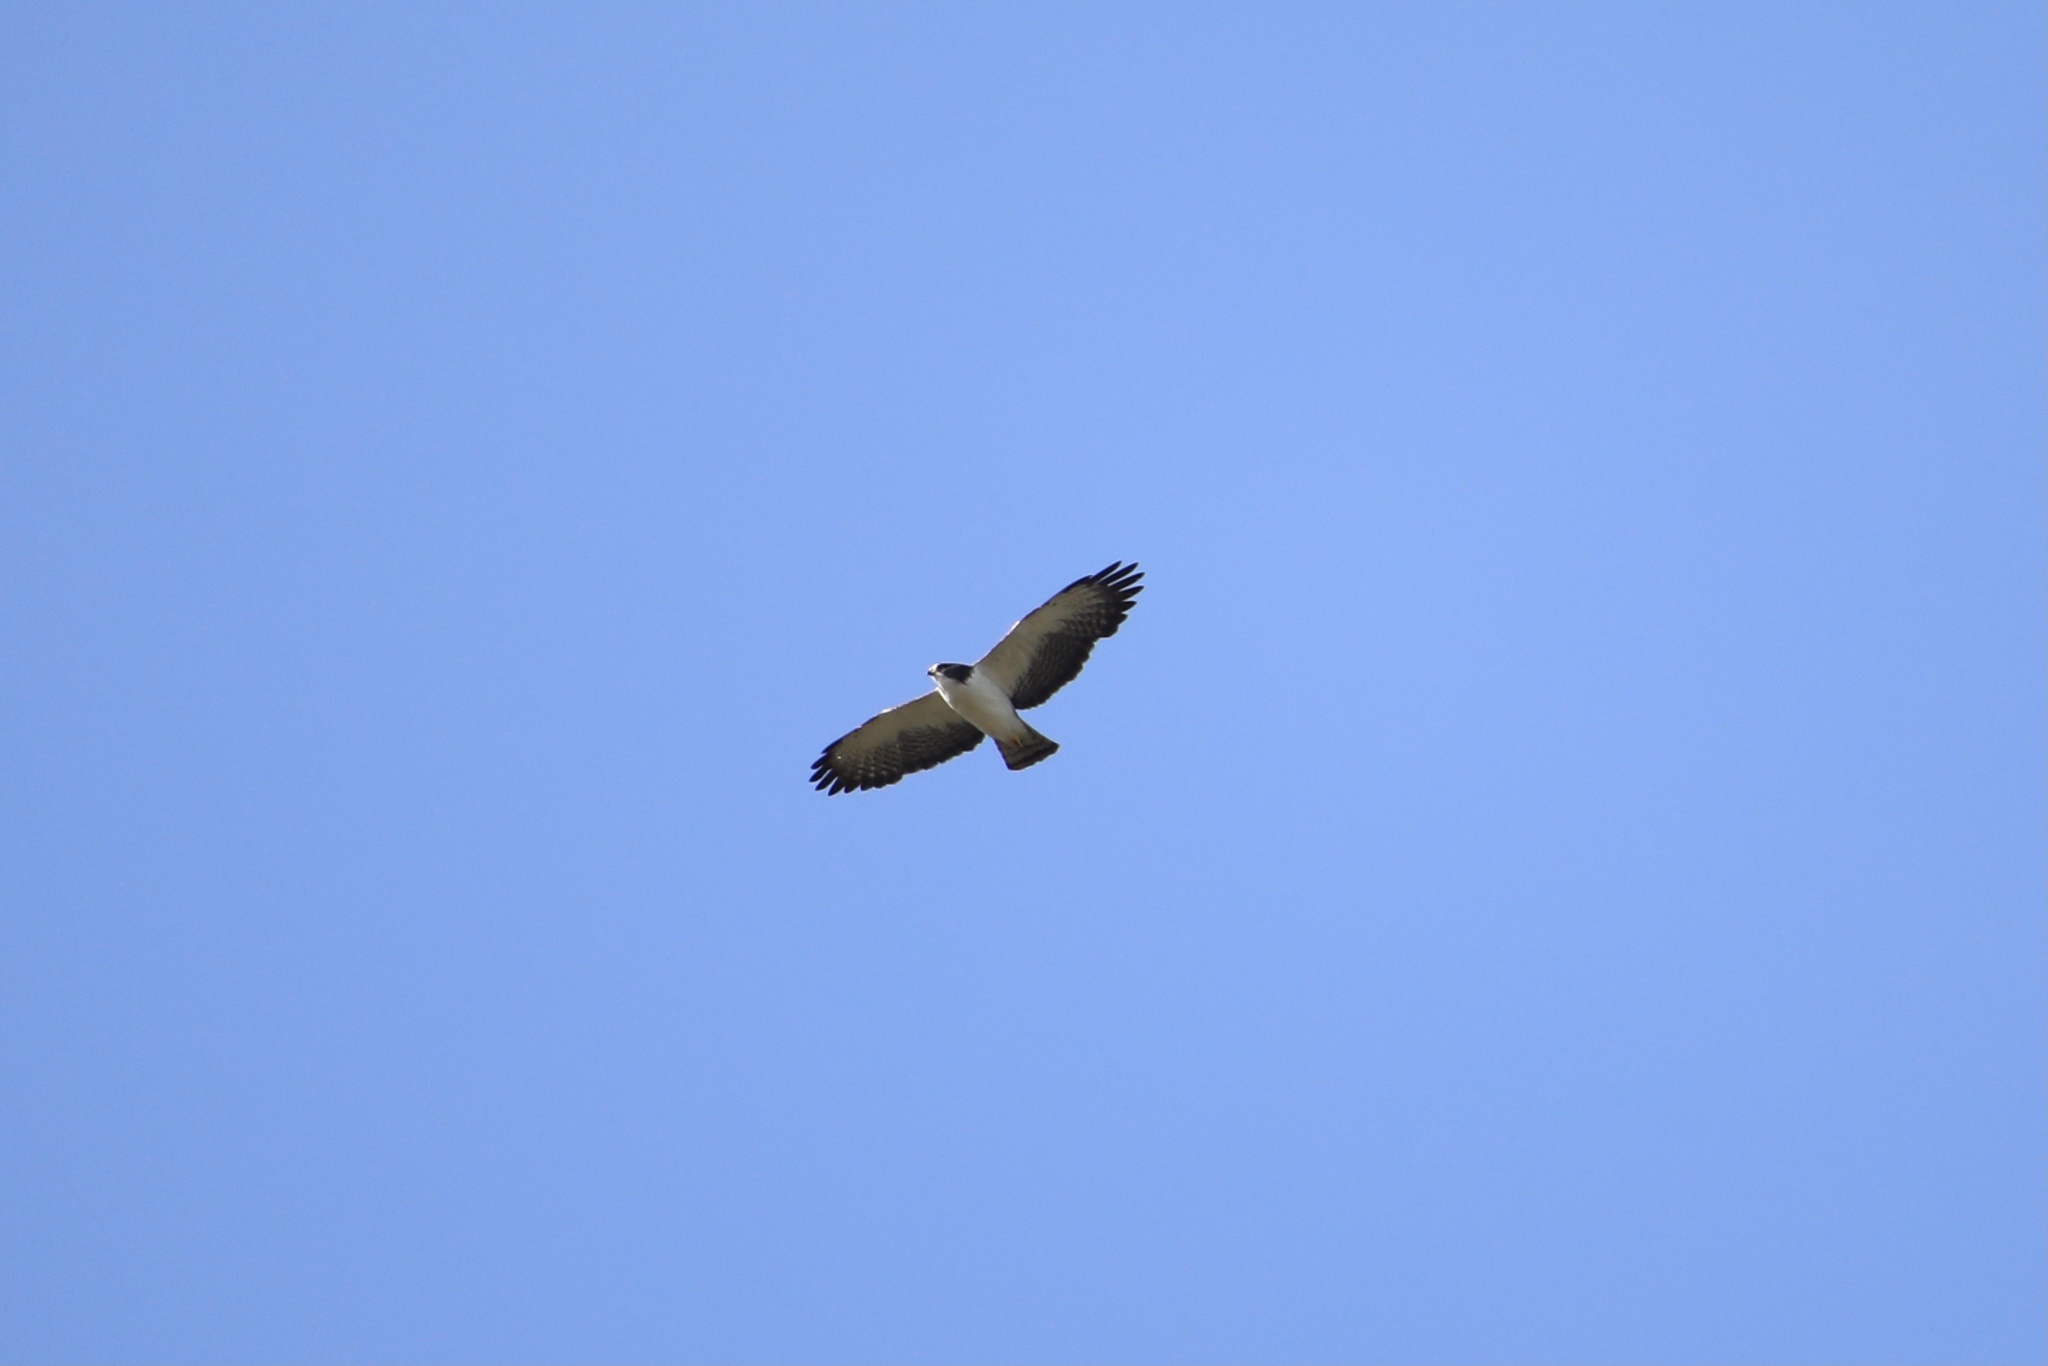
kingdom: Animalia
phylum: Chordata
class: Aves
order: Accipitriformes
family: Accipitridae
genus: Buteo
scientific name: Buteo brachyurus
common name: Short-tailed hawk
